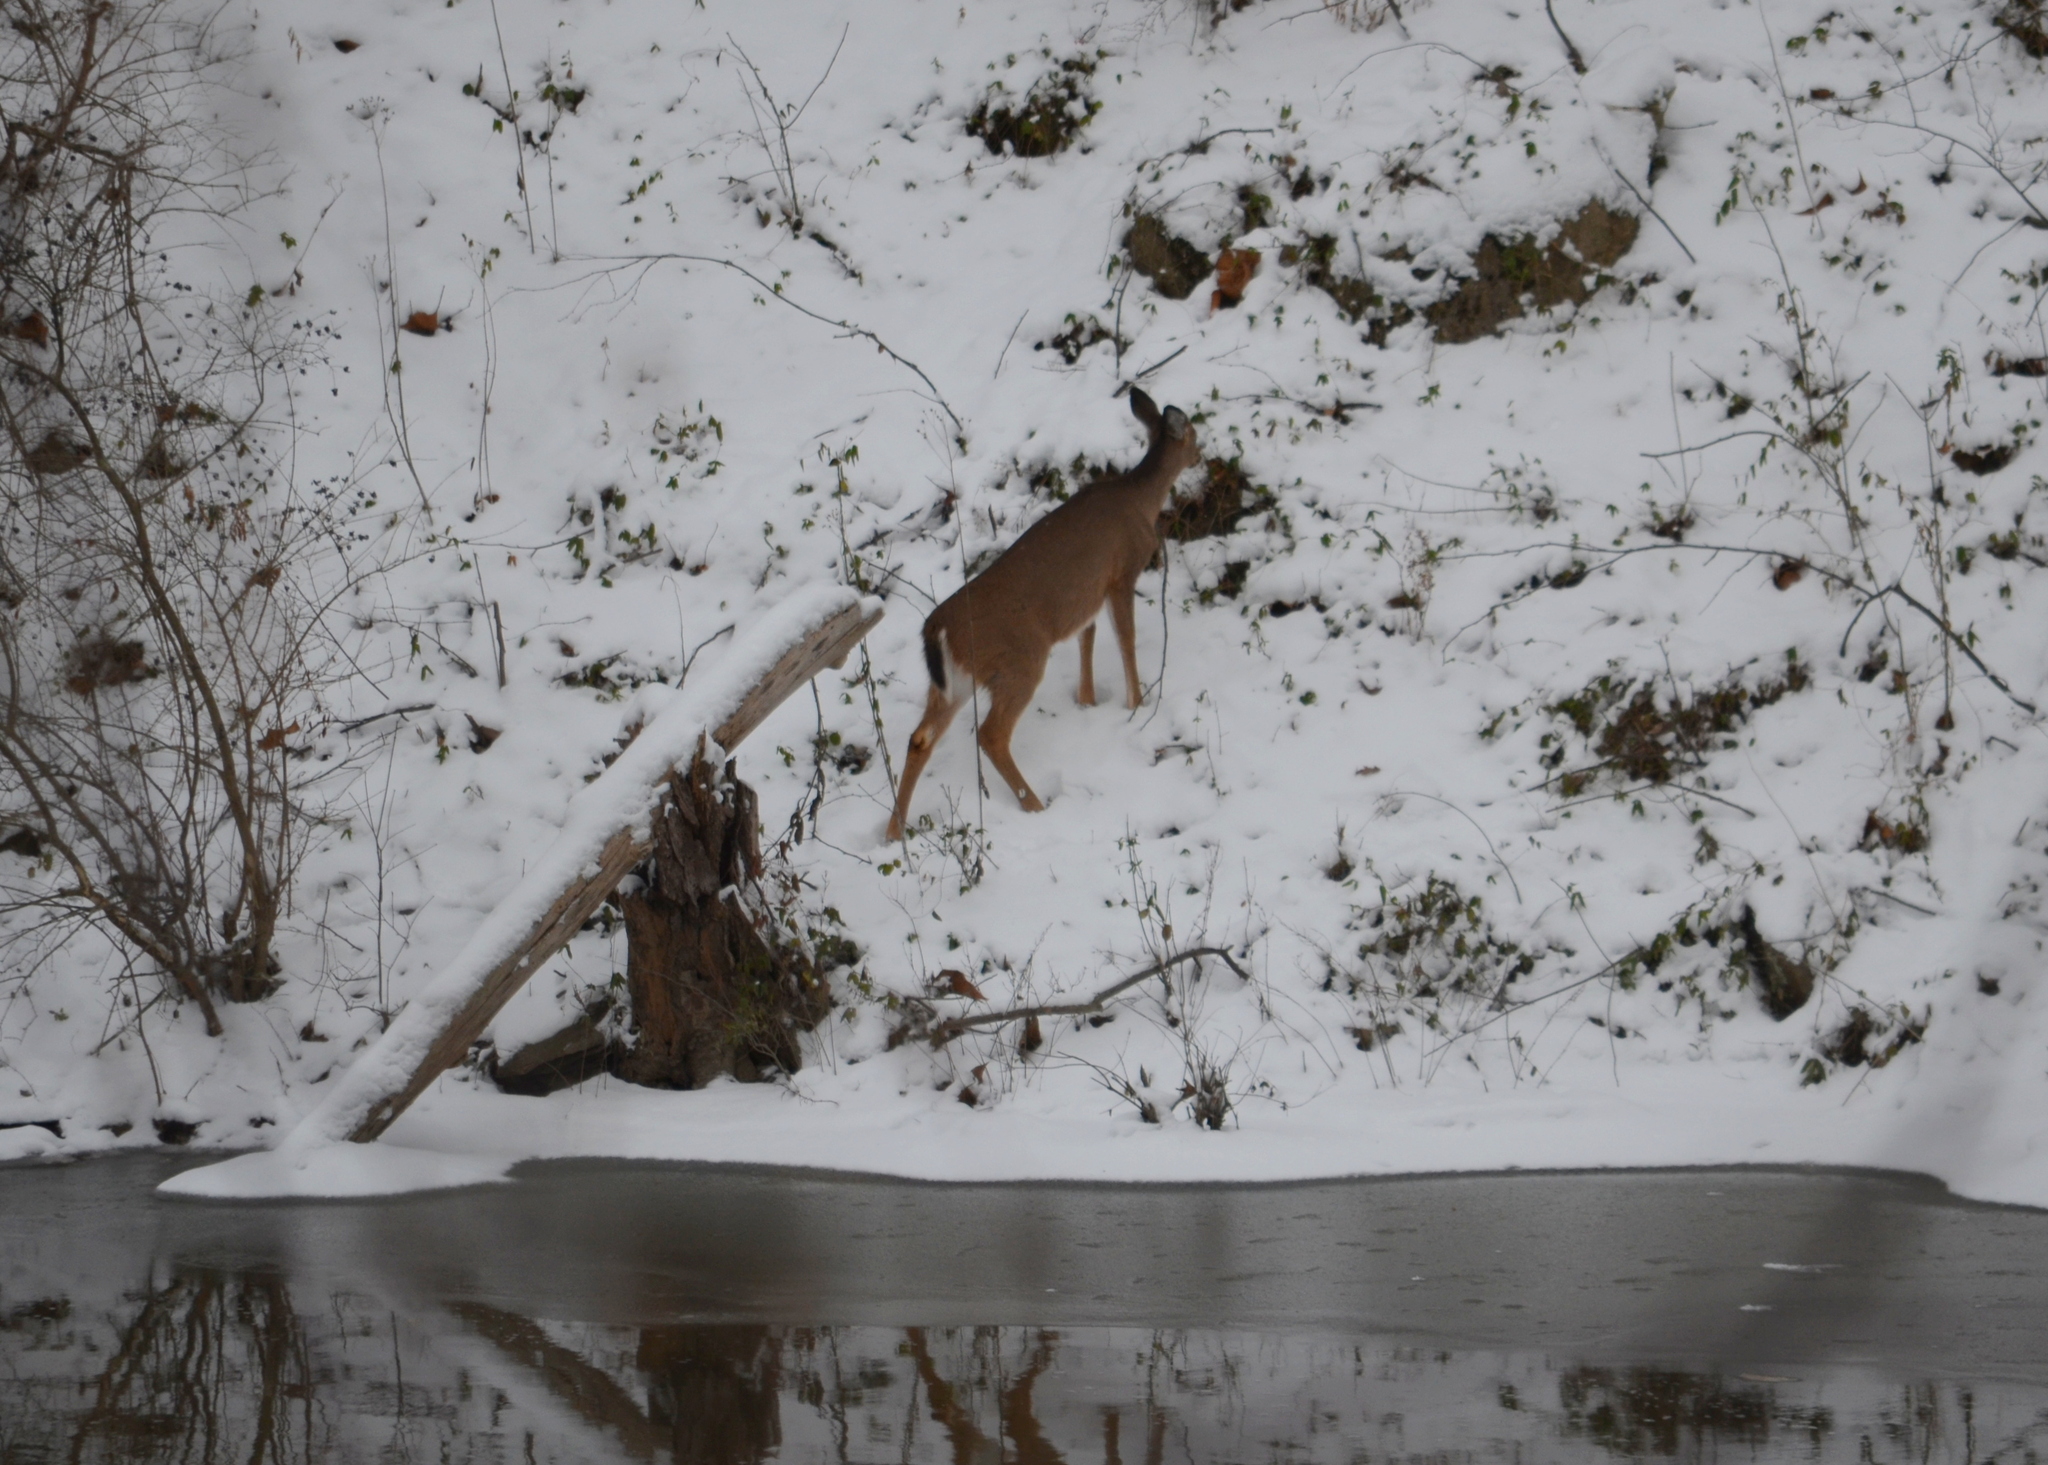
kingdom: Animalia
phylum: Chordata
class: Mammalia
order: Artiodactyla
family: Cervidae
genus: Odocoileus
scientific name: Odocoileus virginianus
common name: White-tailed deer
